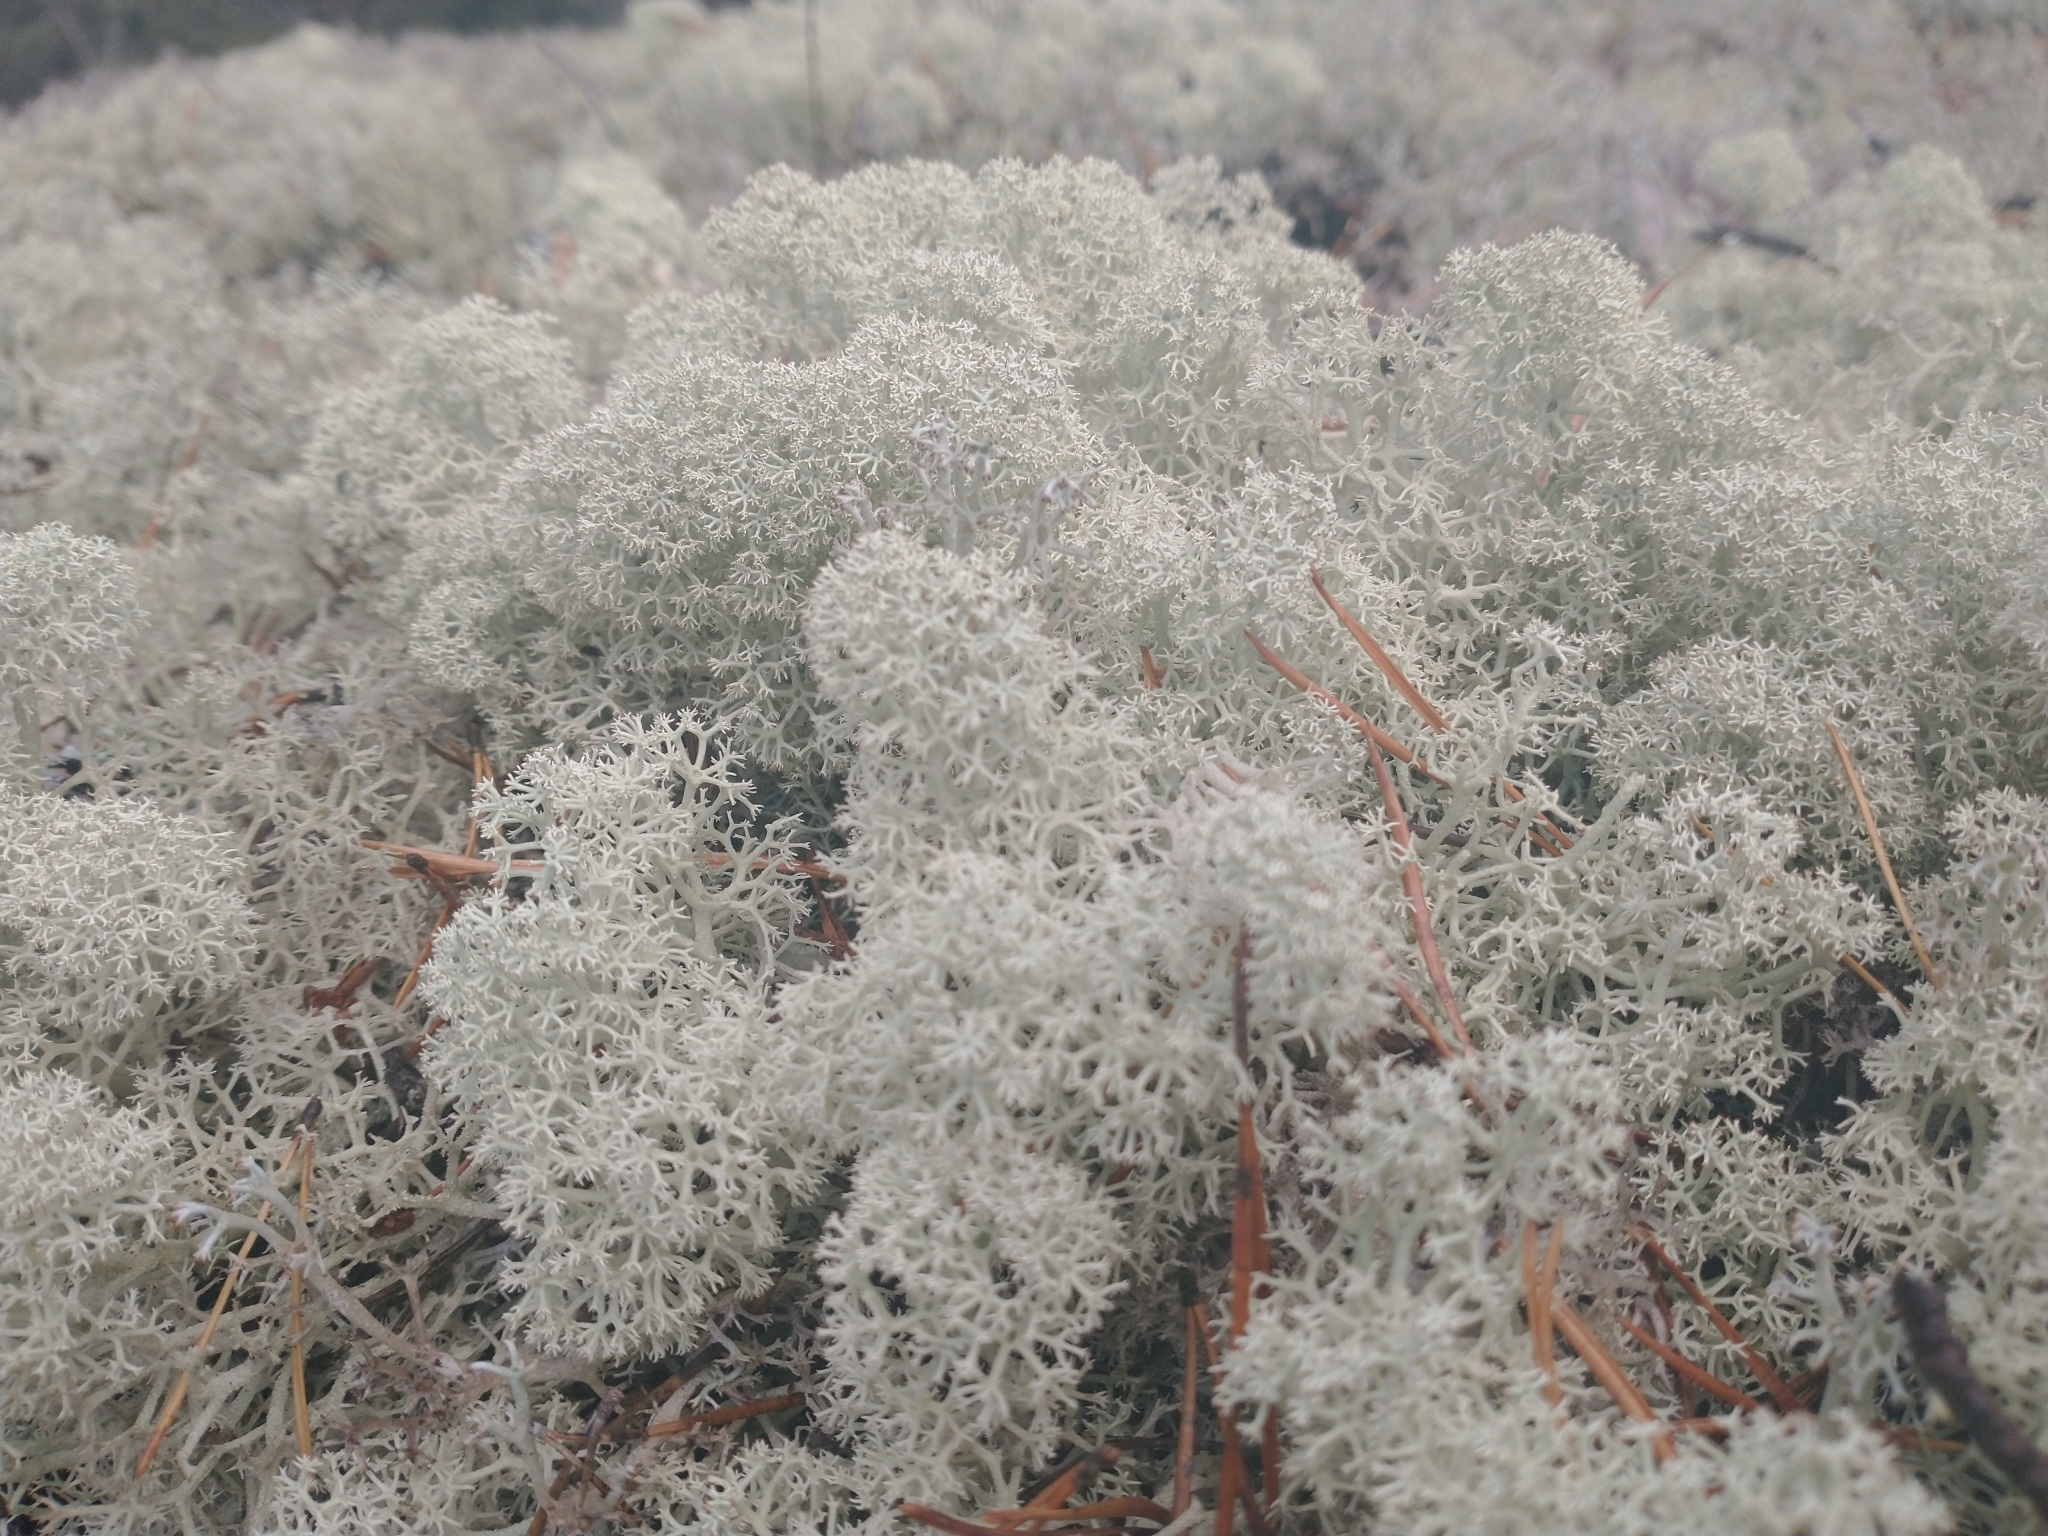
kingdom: Fungi
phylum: Ascomycota
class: Lecanoromycetes
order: Lecanorales
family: Cladoniaceae
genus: Cladonia
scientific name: Cladonia stellaris
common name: Star-tipped reindeer lichen
